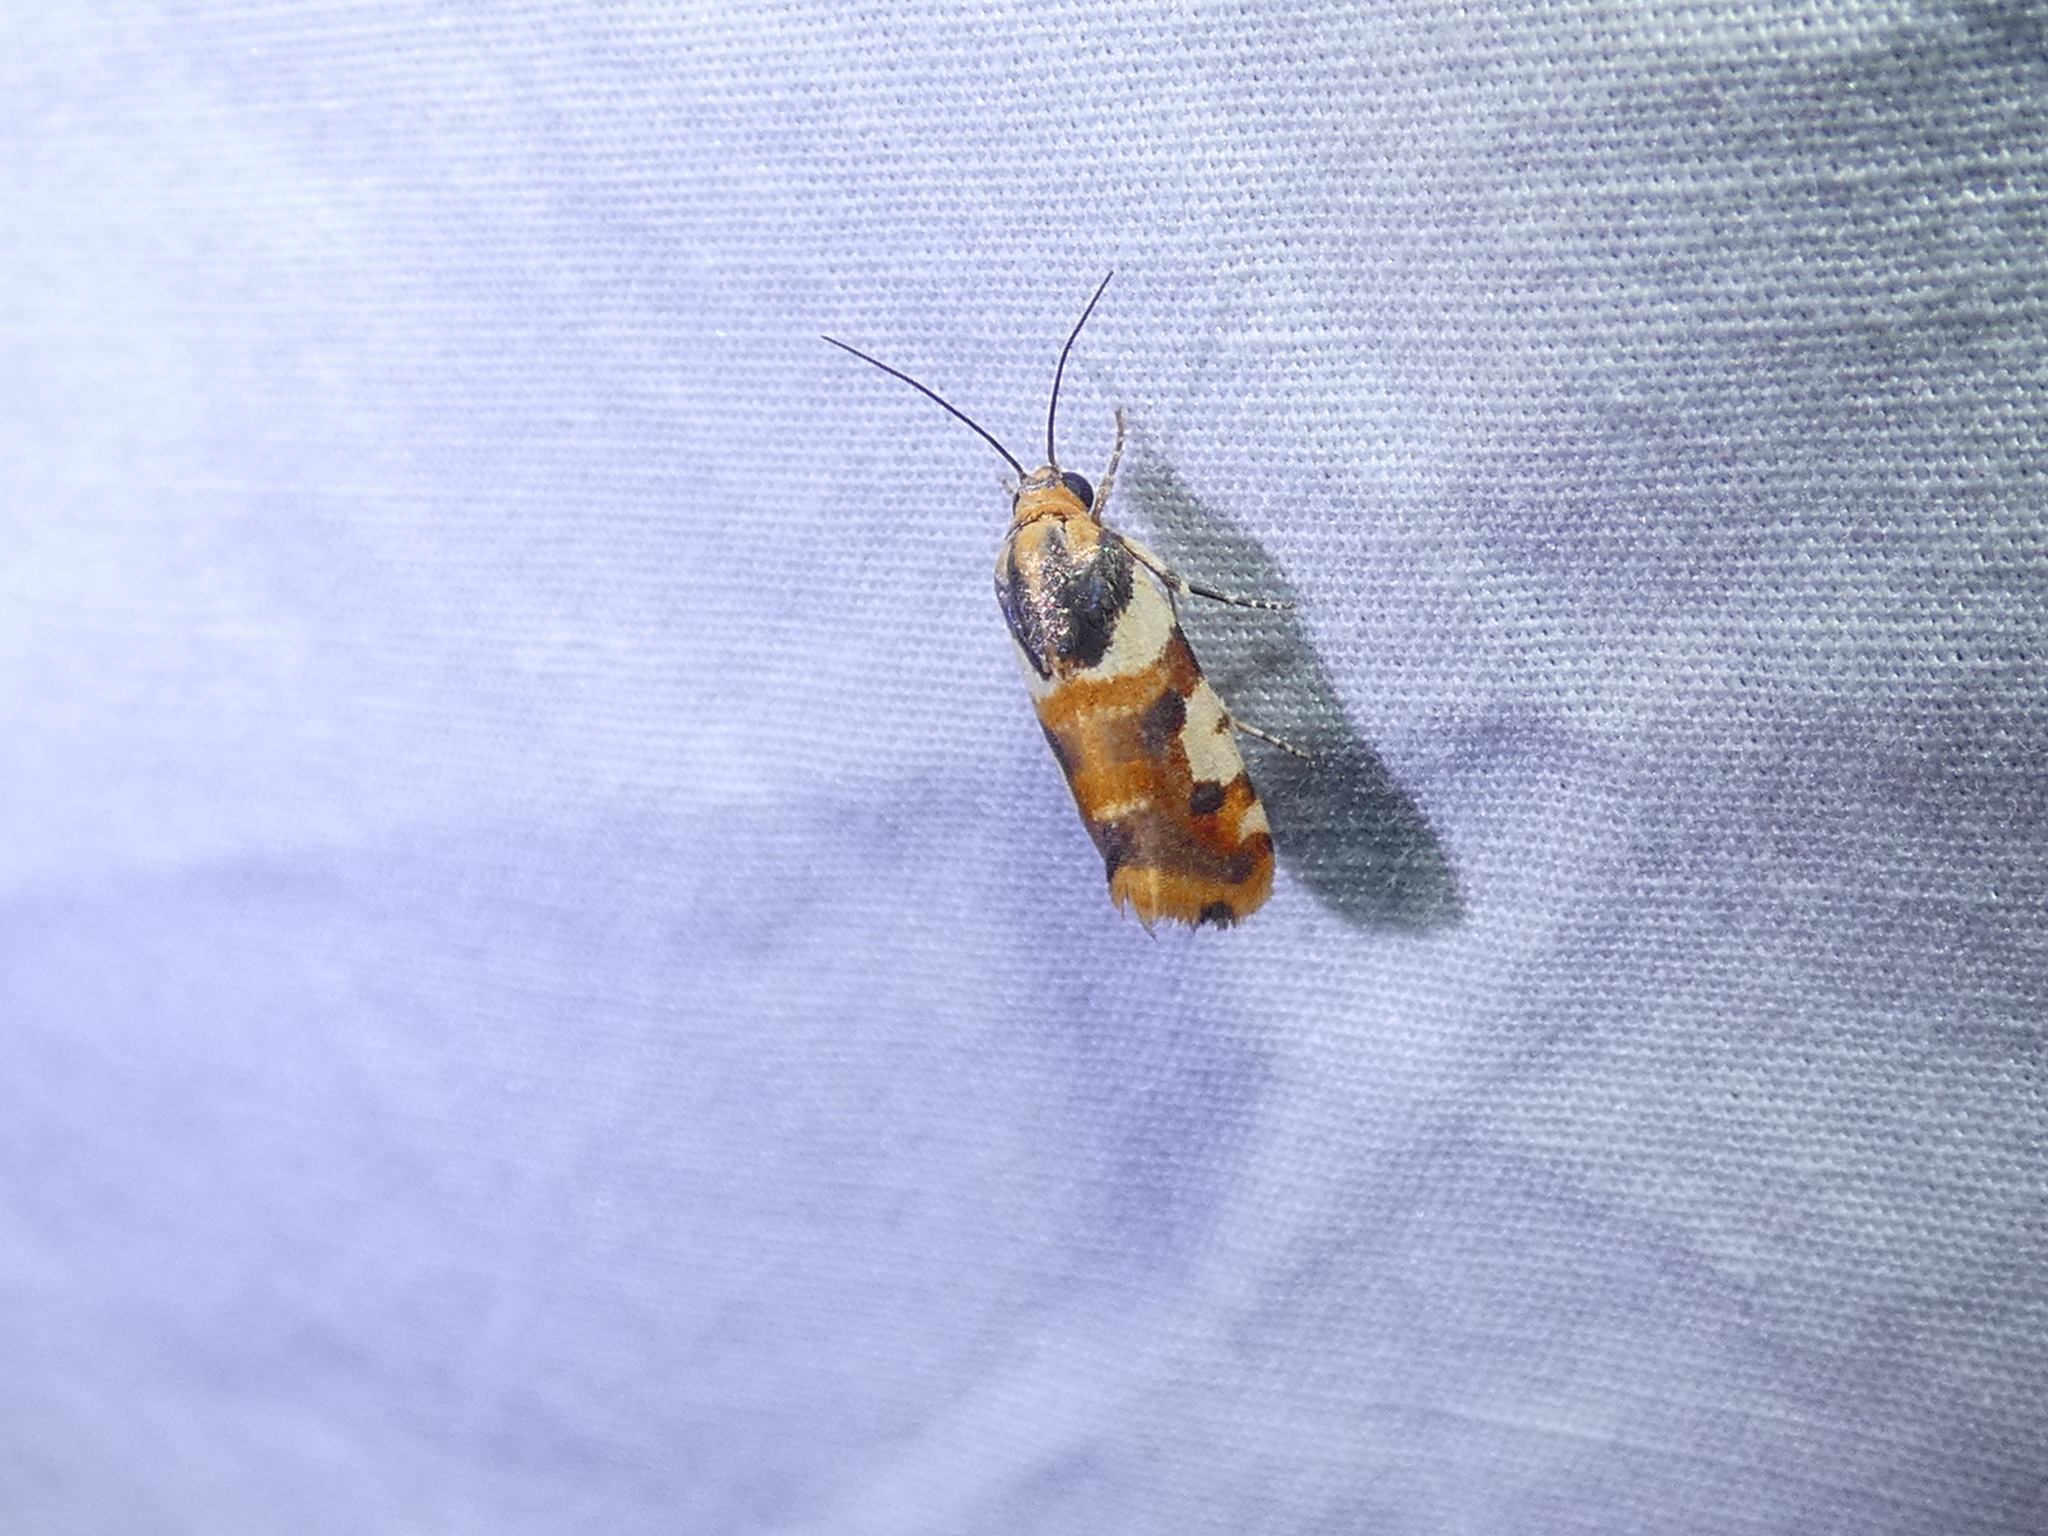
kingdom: Animalia
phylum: Arthropoda
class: Insecta
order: Lepidoptera
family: Noctuidae
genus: Acontia
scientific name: Acontia dama
